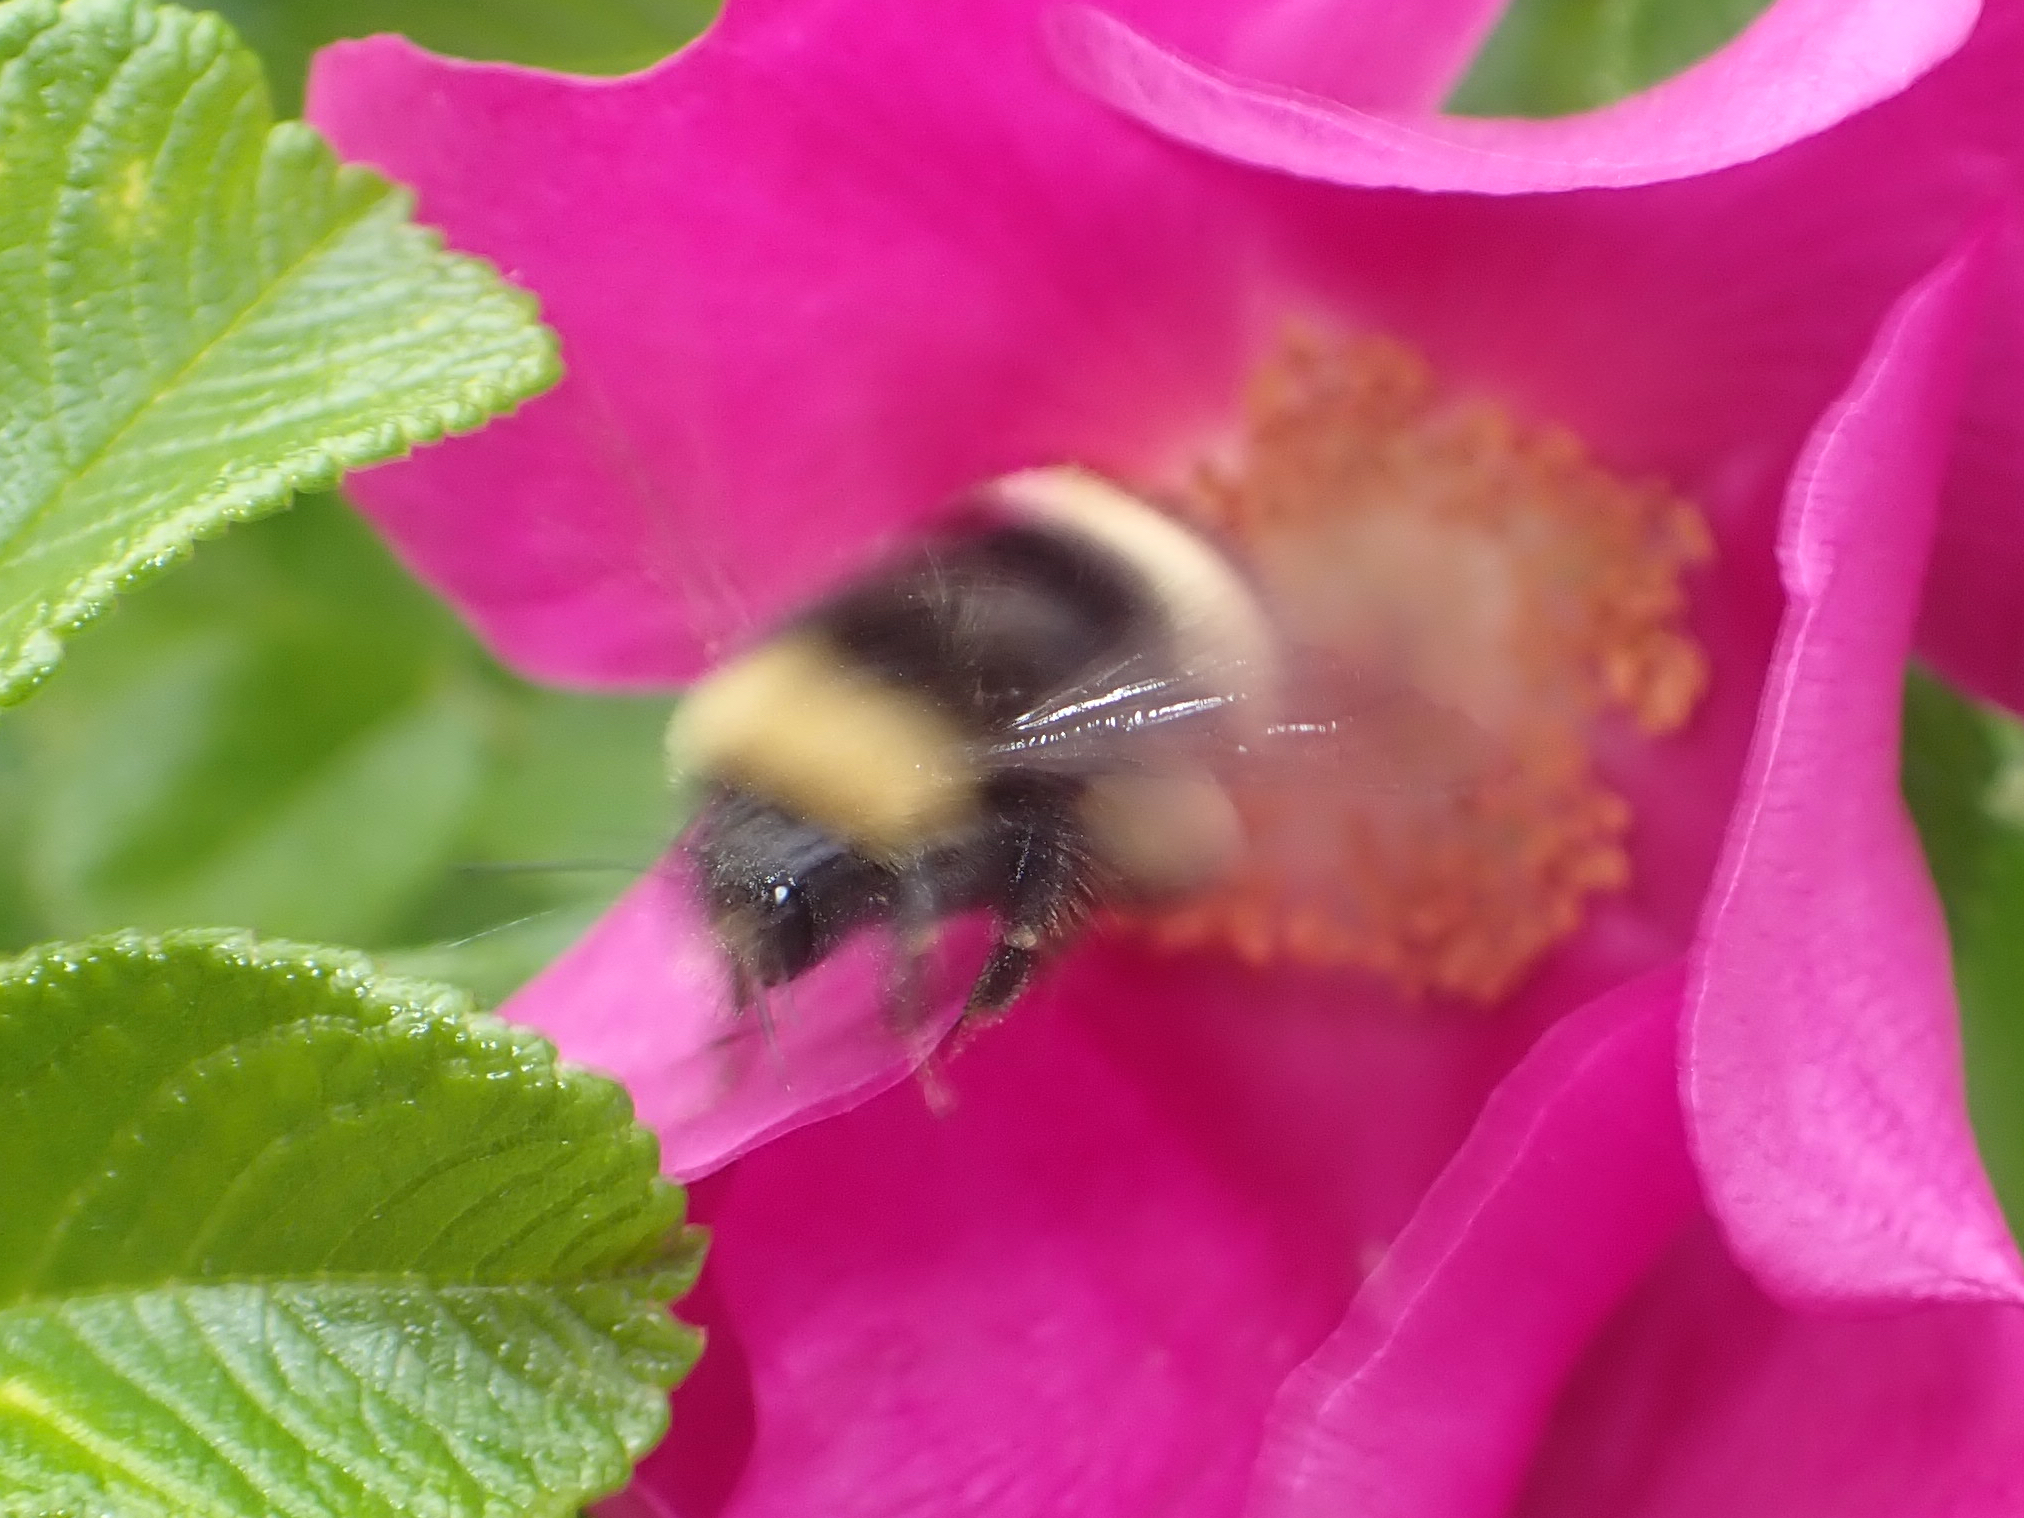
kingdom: Animalia
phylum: Arthropoda
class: Insecta
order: Hymenoptera
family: Apidae
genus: Bombus
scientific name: Bombus mckayi
